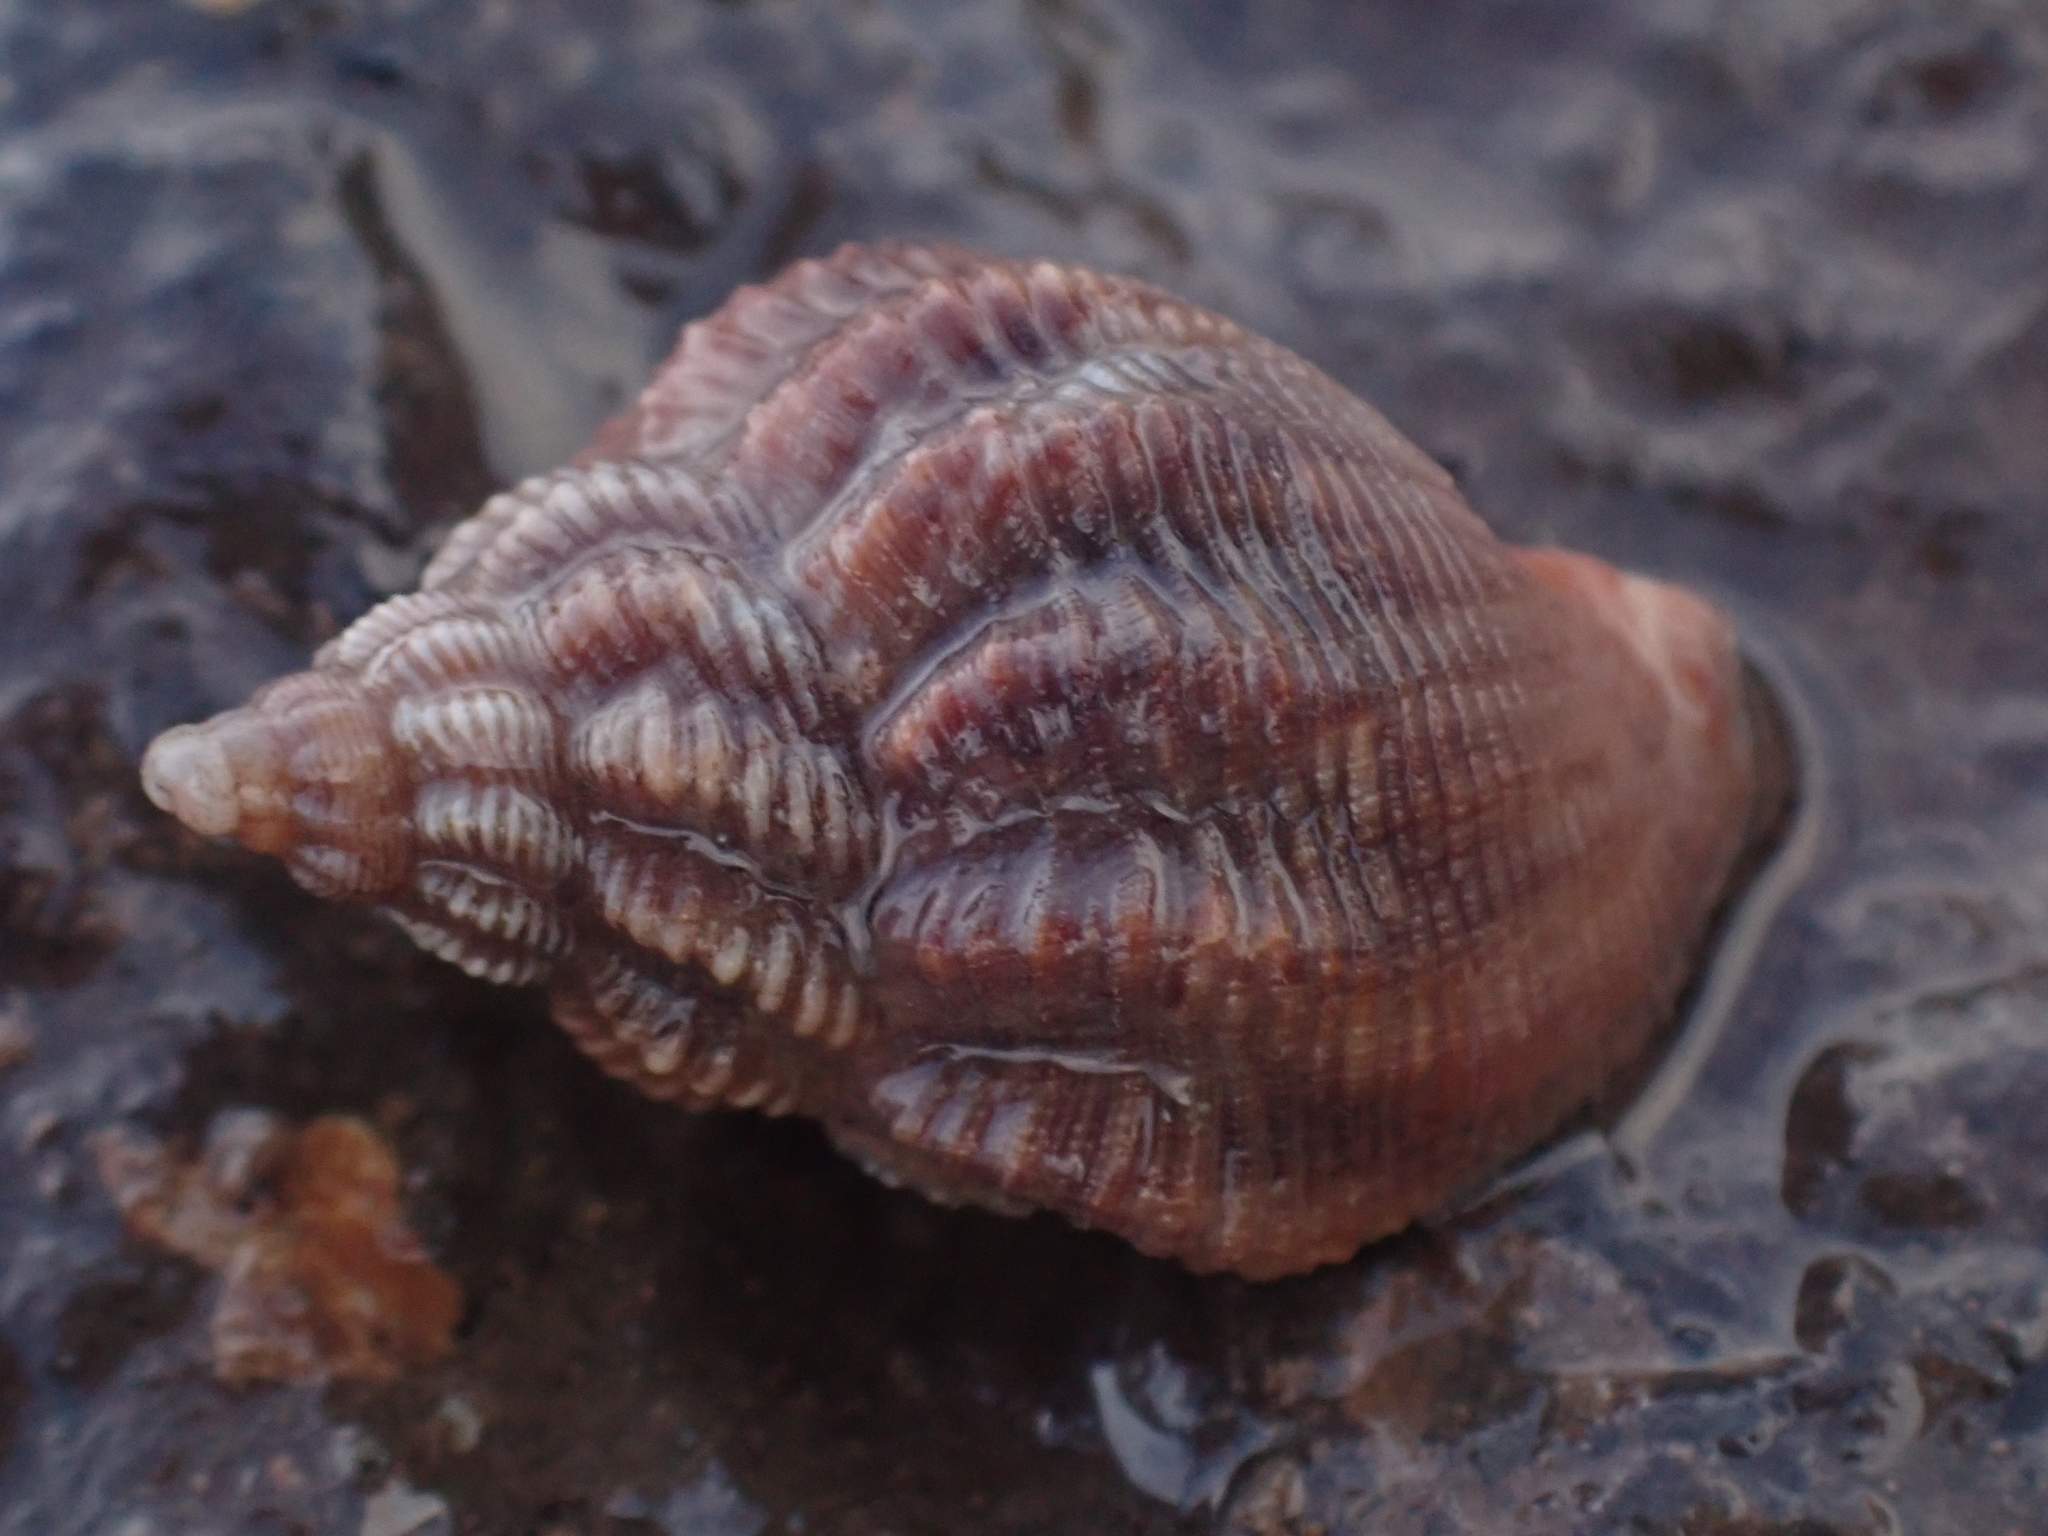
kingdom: Animalia
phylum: Mollusca
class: Gastropoda
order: Neogastropoda
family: Buccinidae
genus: Buccinum
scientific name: Buccinum undatum
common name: Common whelk
